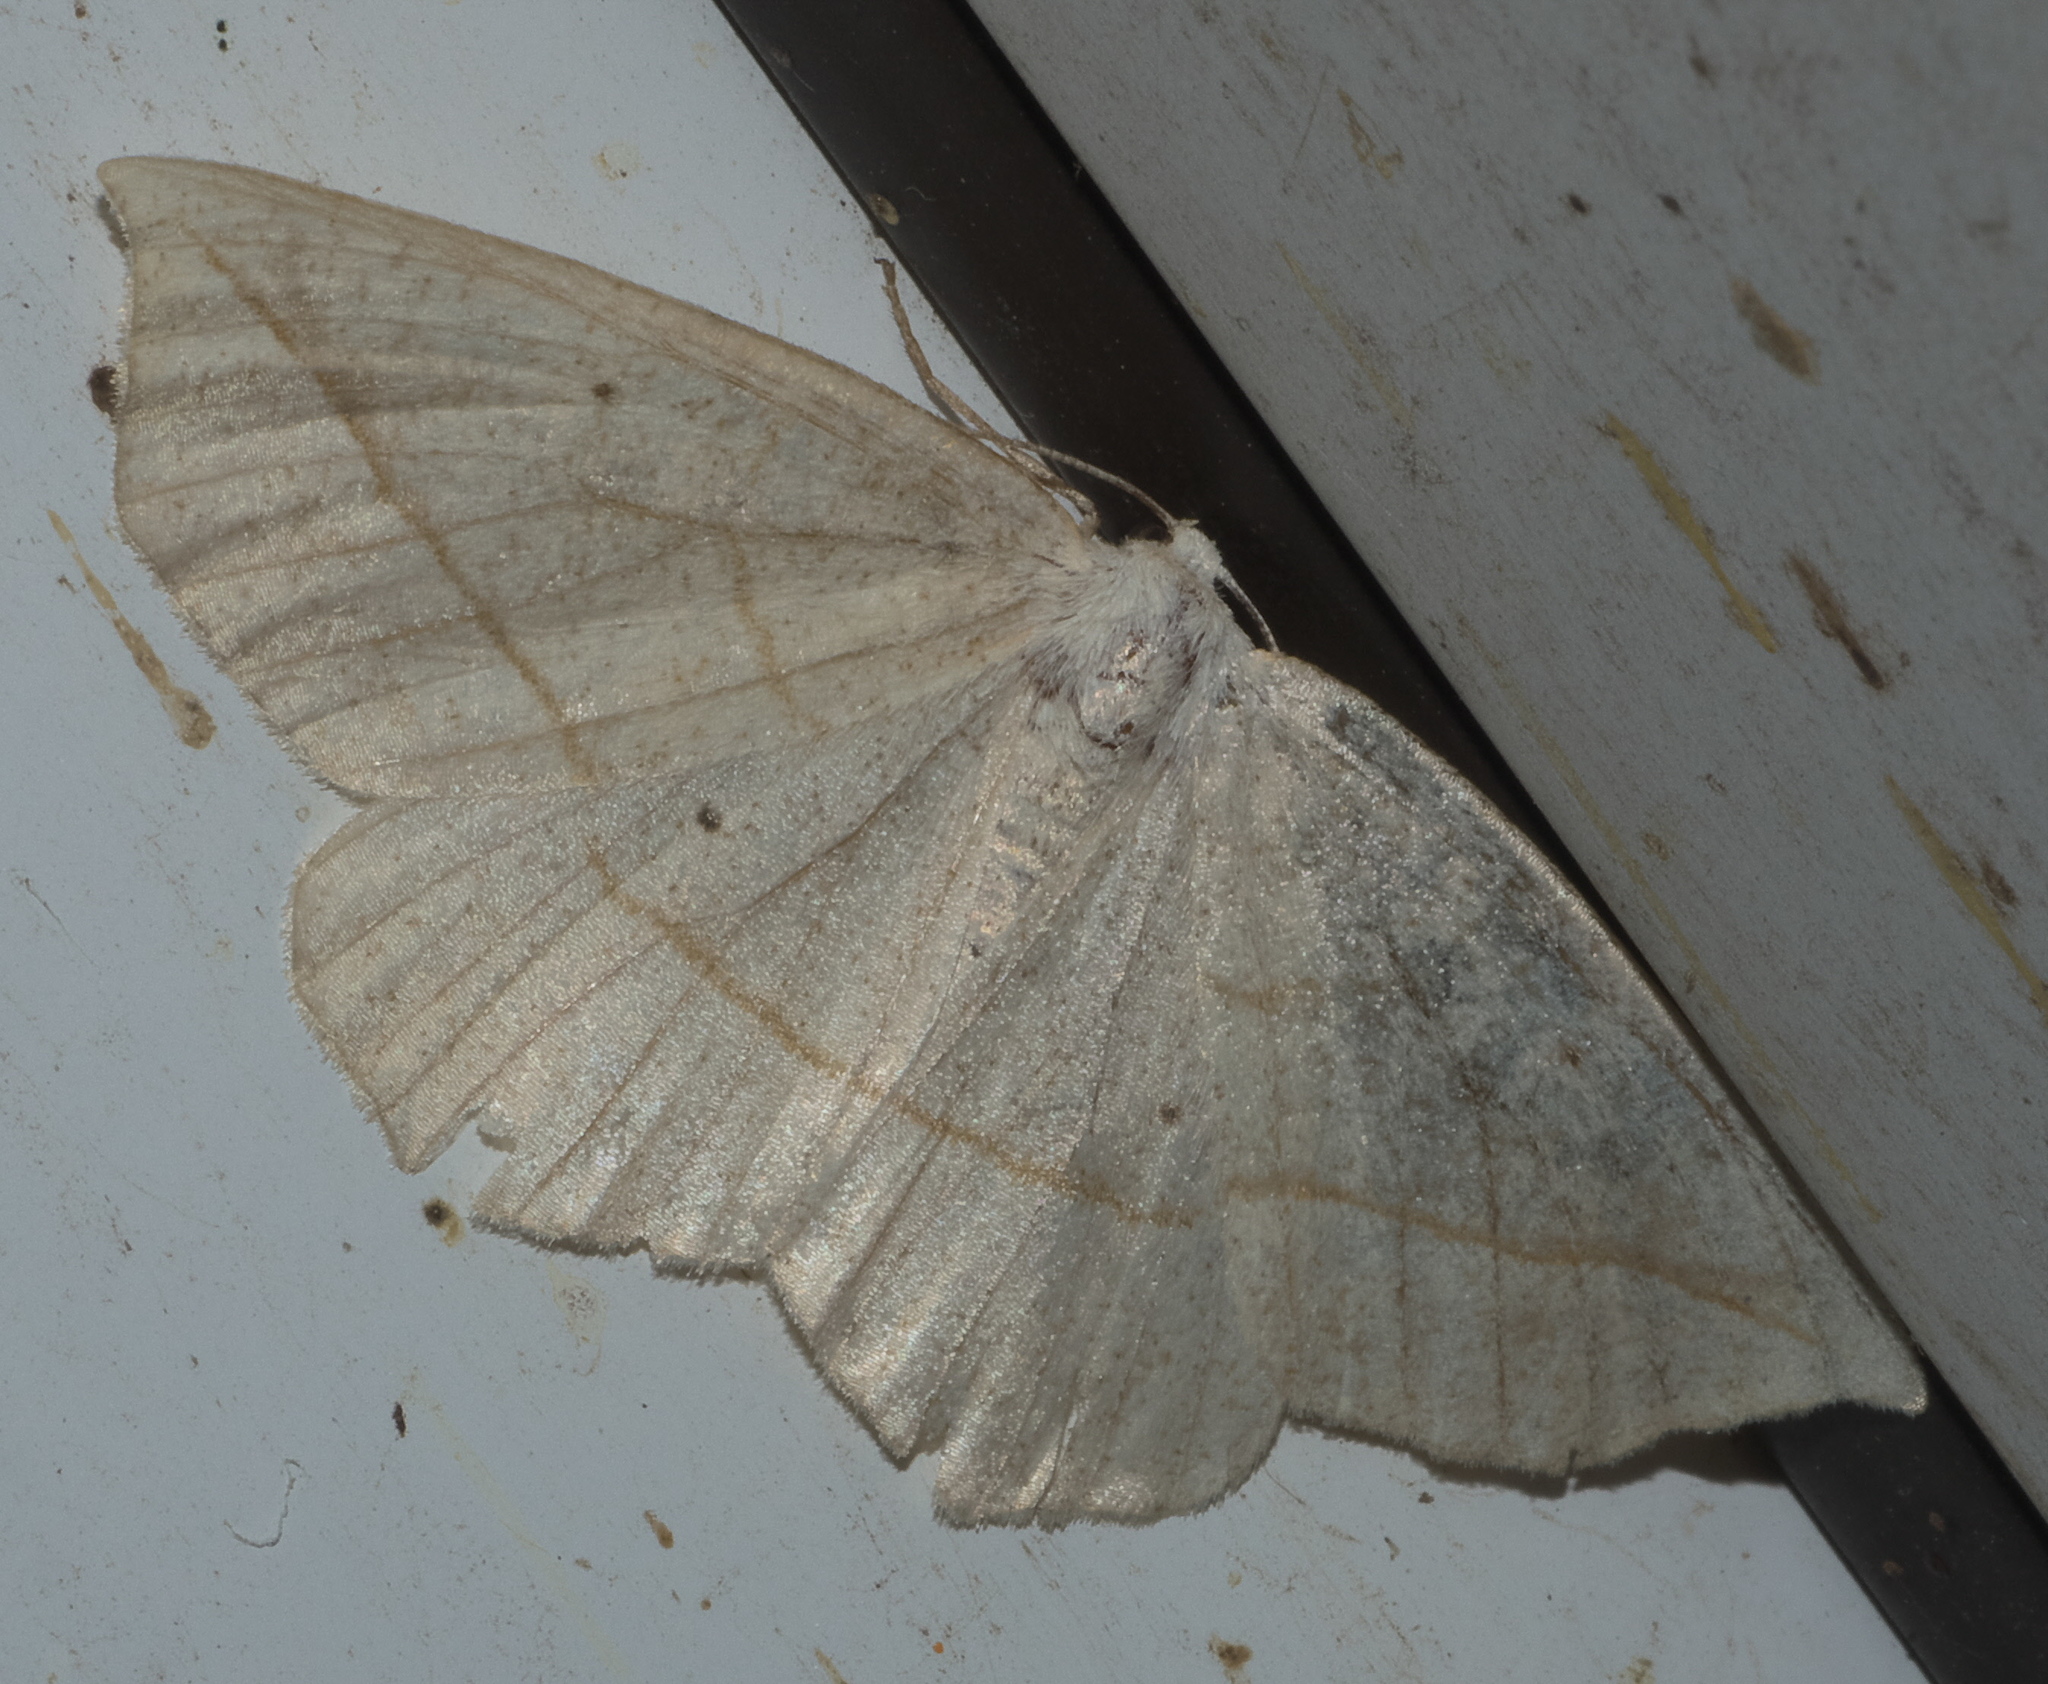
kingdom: Animalia
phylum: Arthropoda
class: Insecta
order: Lepidoptera
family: Geometridae
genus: Eusarca
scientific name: Eusarca confusaria
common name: Confused eusarca
